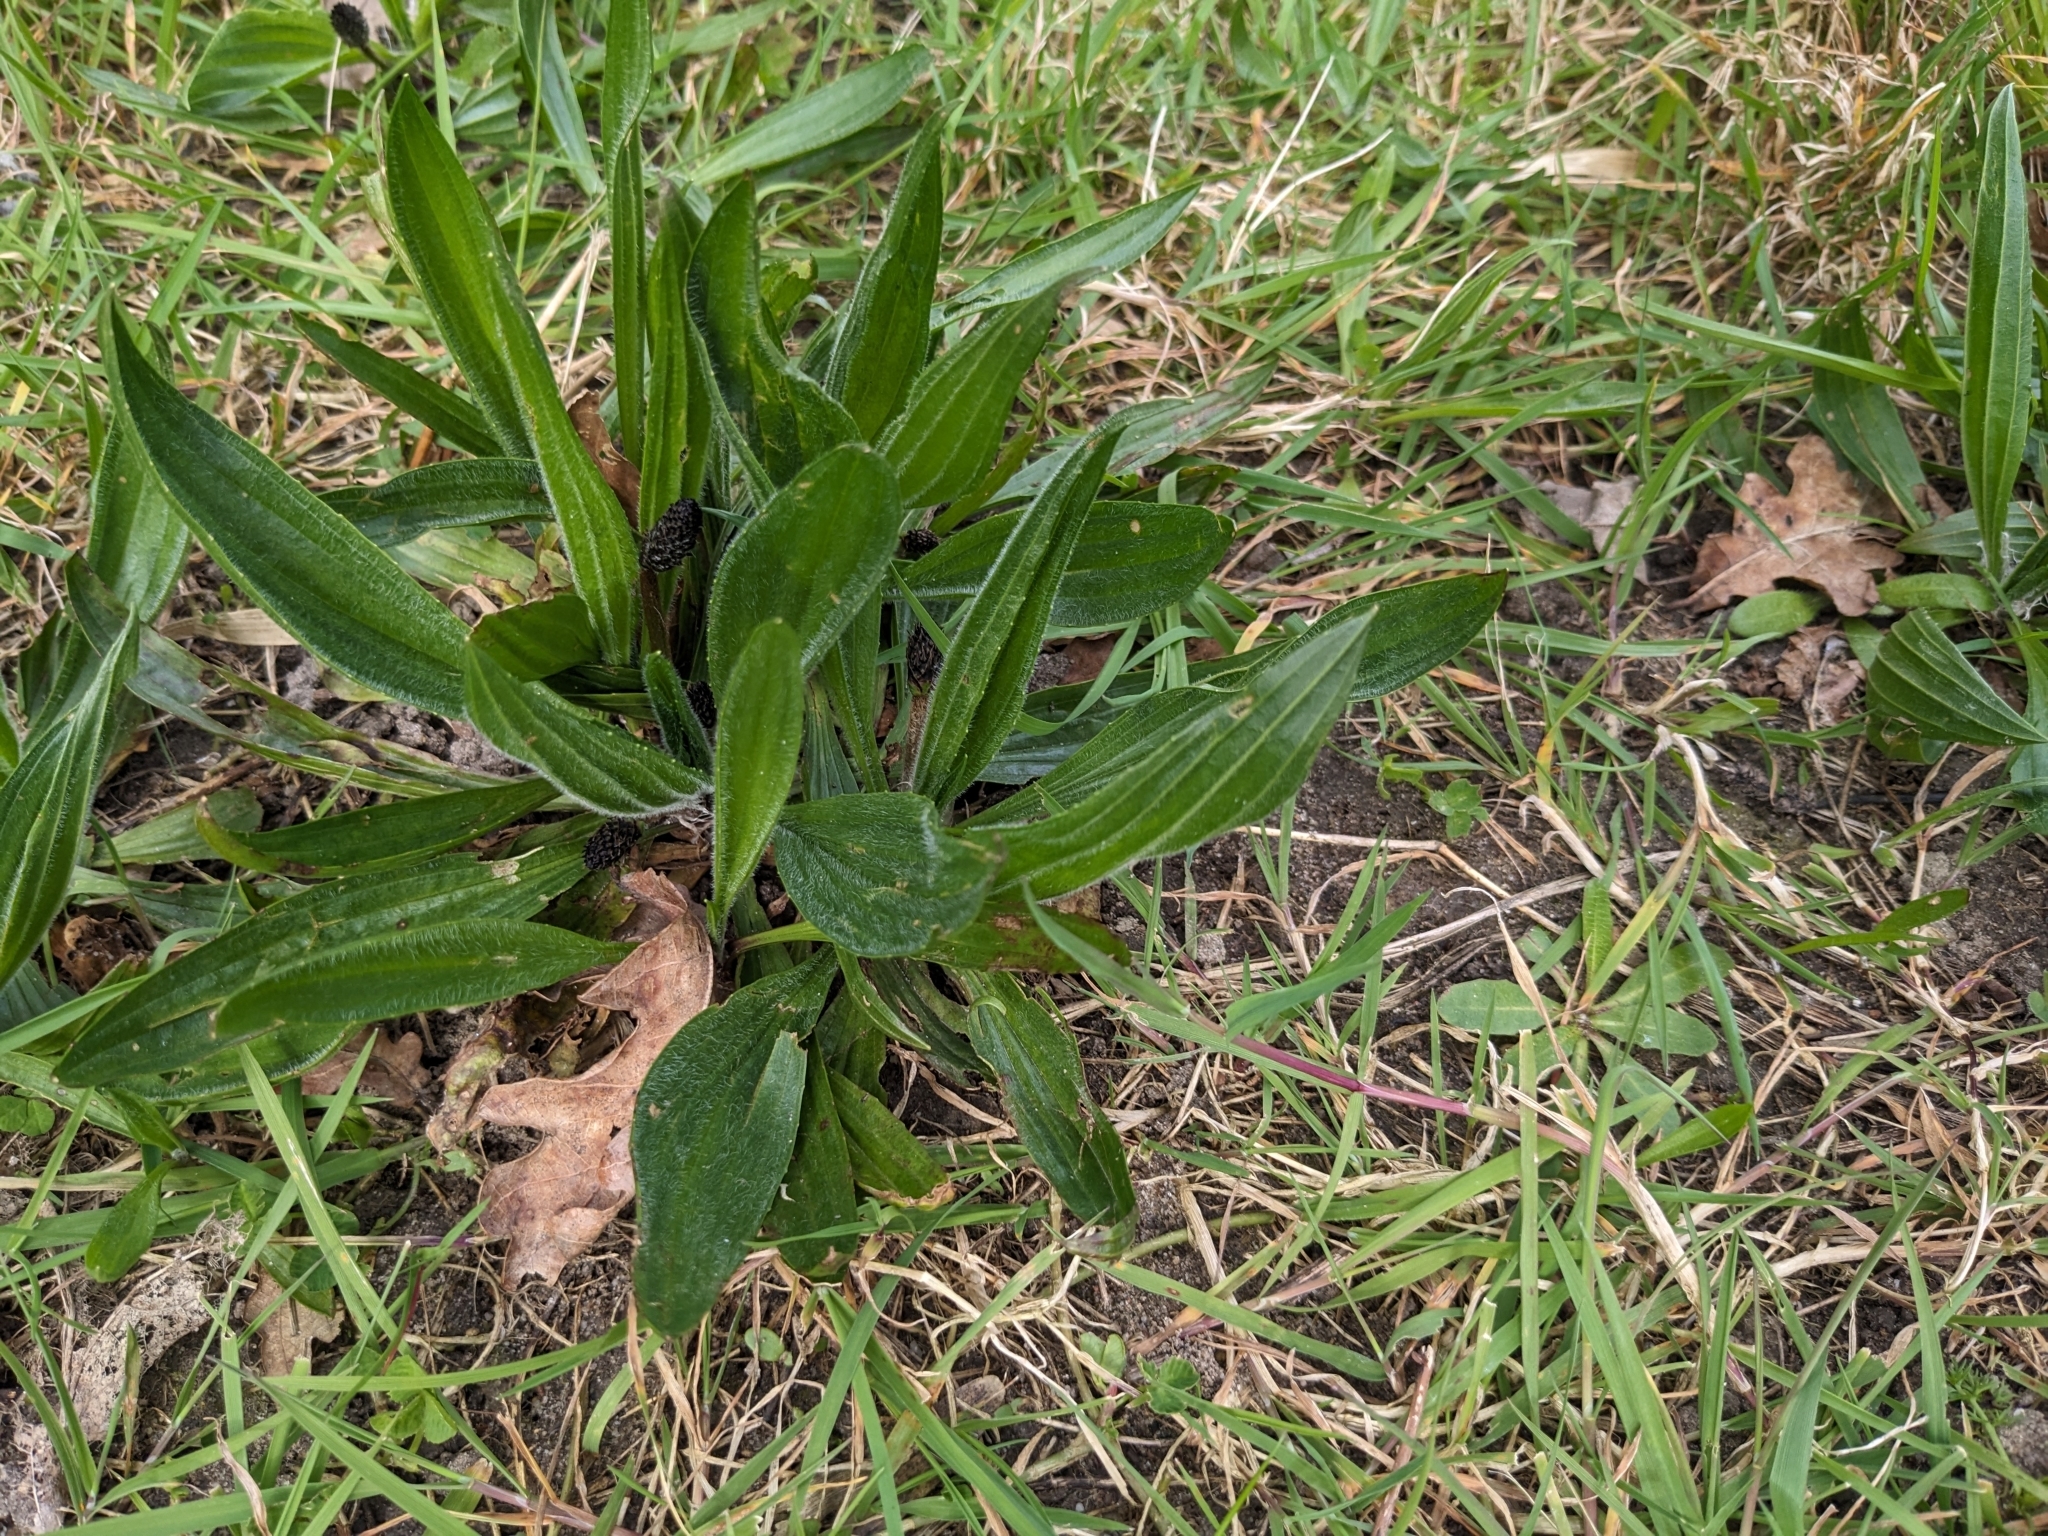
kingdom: Plantae
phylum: Tracheophyta
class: Magnoliopsida
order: Lamiales
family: Plantaginaceae
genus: Plantago
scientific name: Plantago lanceolata
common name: Ribwort plantain
